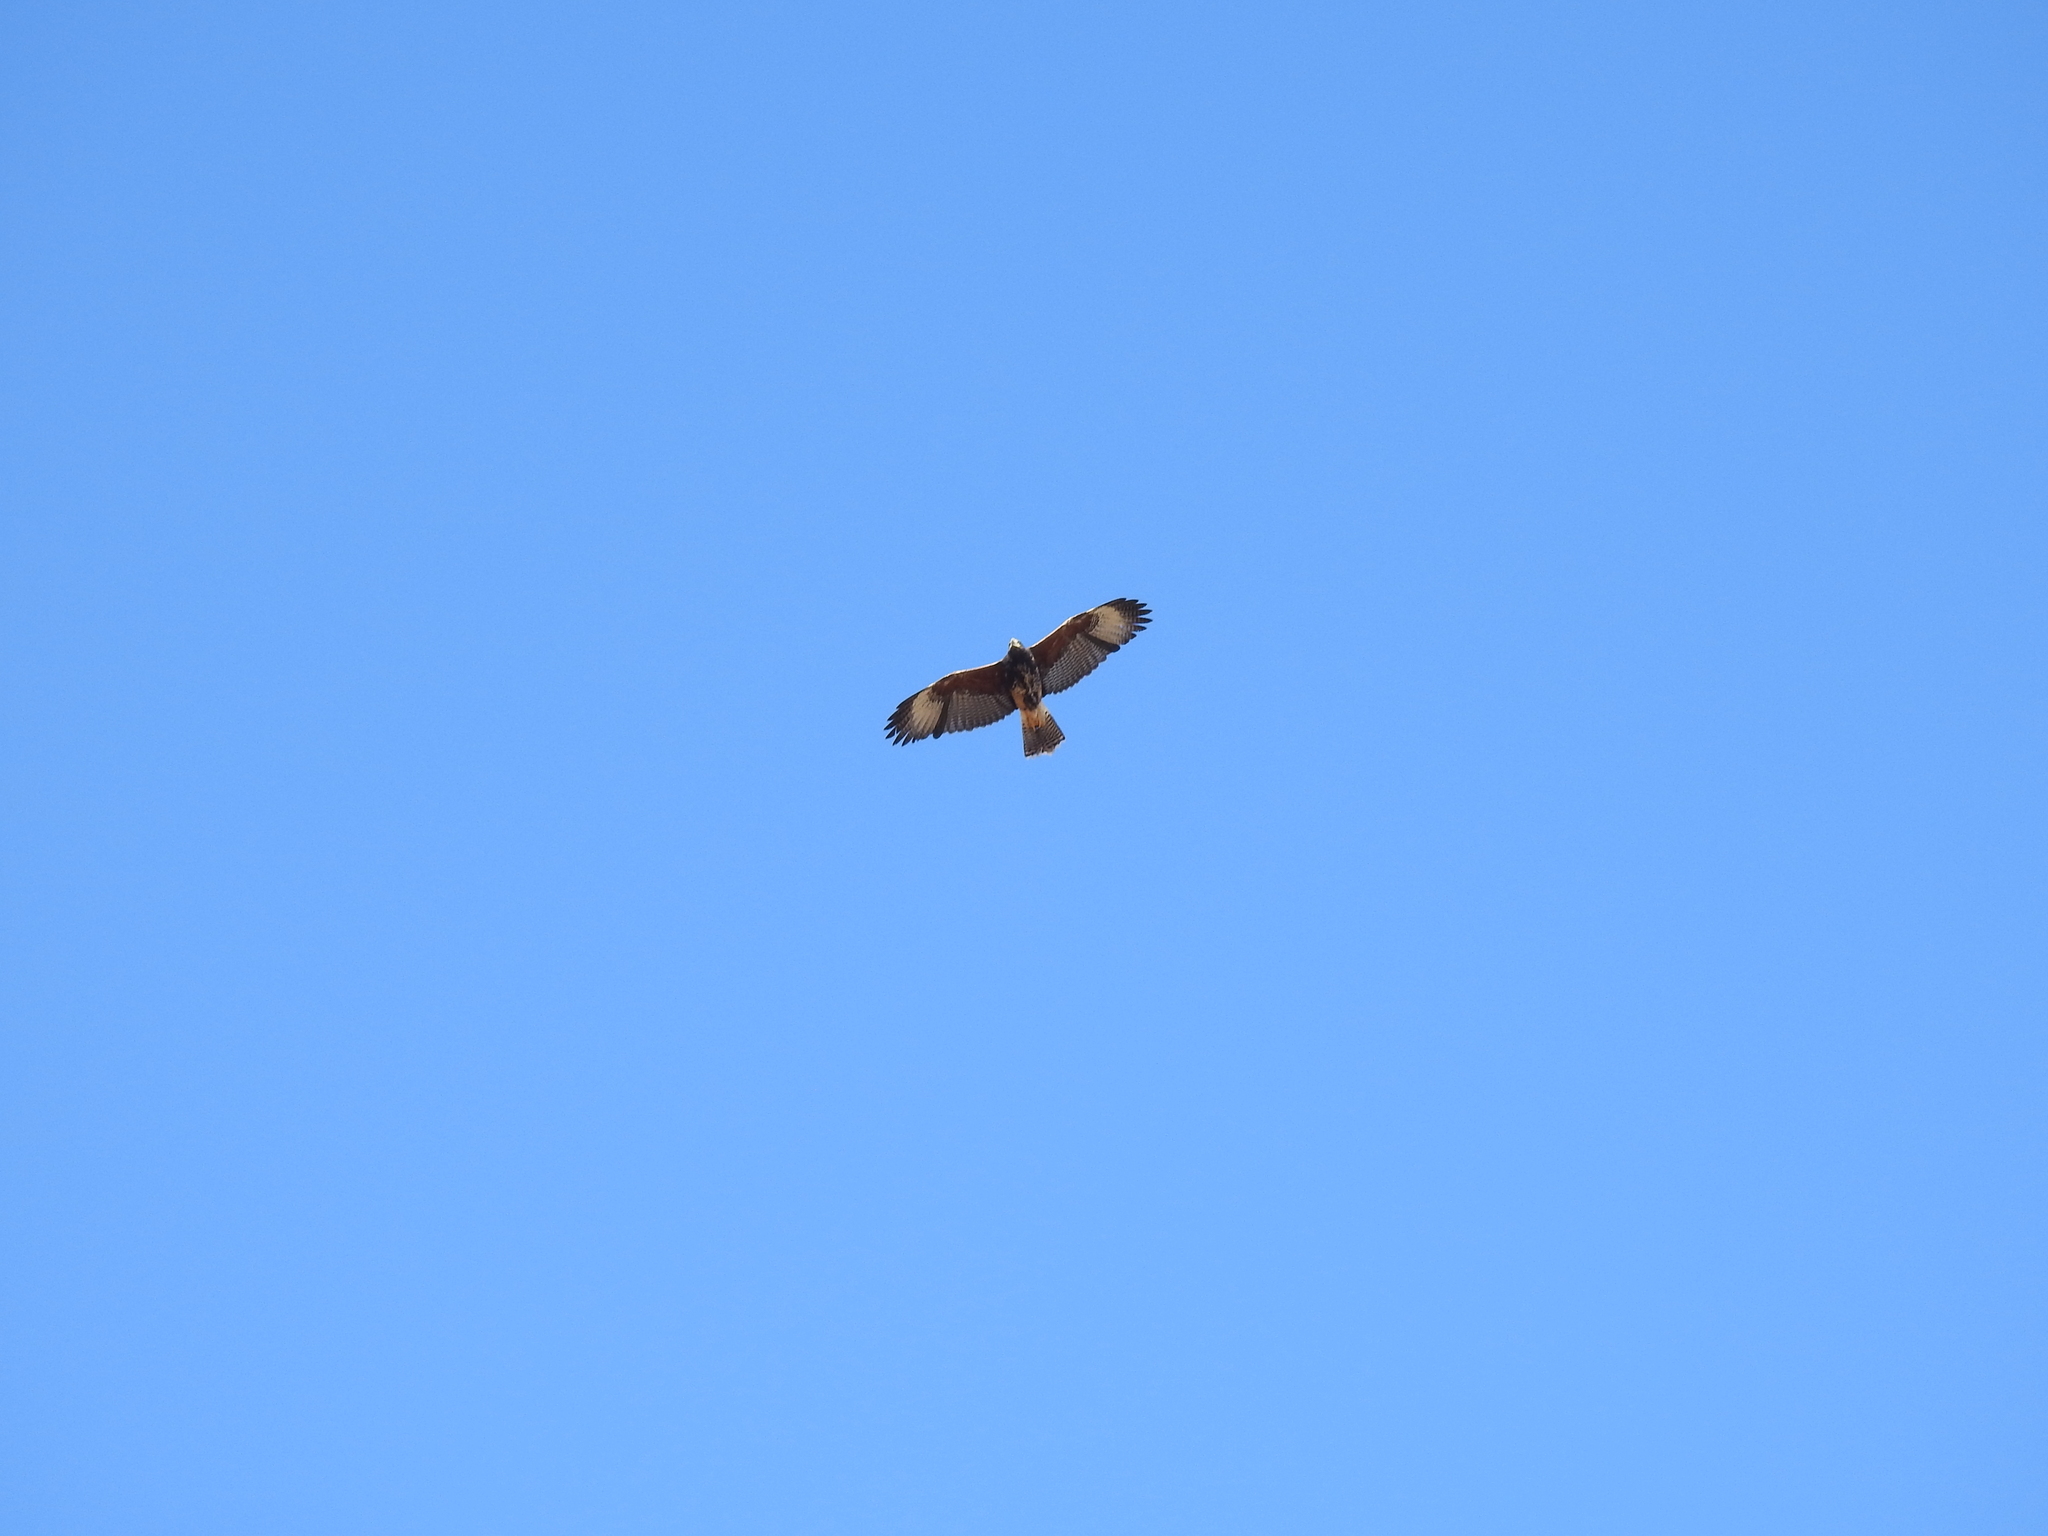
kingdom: Animalia
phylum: Chordata
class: Aves
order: Accipitriformes
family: Accipitridae
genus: Parabuteo
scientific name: Parabuteo unicinctus
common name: Harris's hawk
